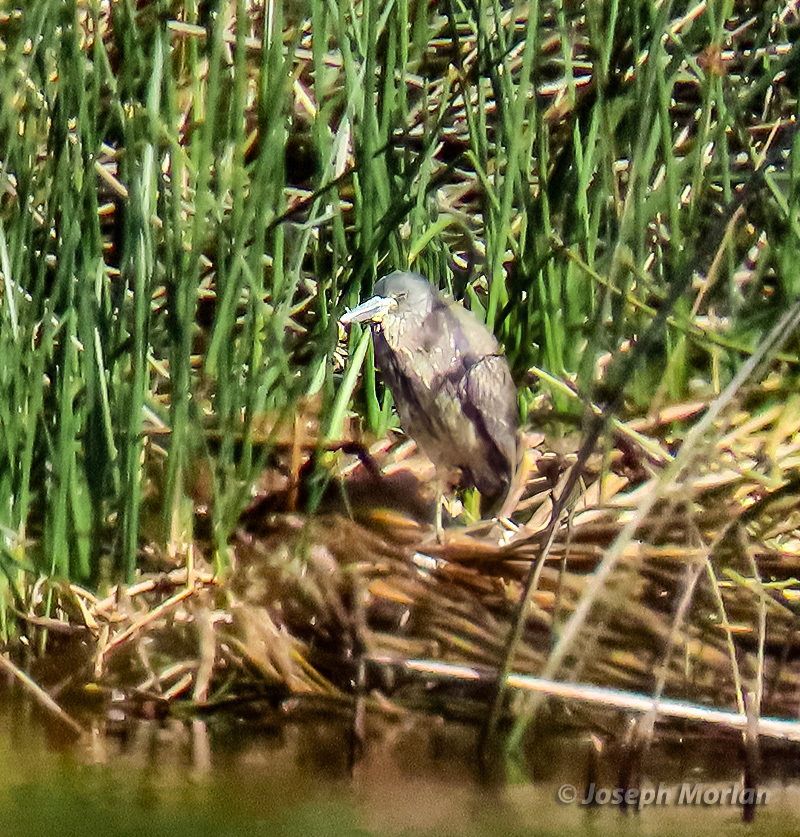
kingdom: Animalia
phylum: Chordata
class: Aves
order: Pelecaniformes
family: Ardeidae
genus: Nyctanassa
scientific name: Nyctanassa violacea
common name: Yellow-crowned night heron
